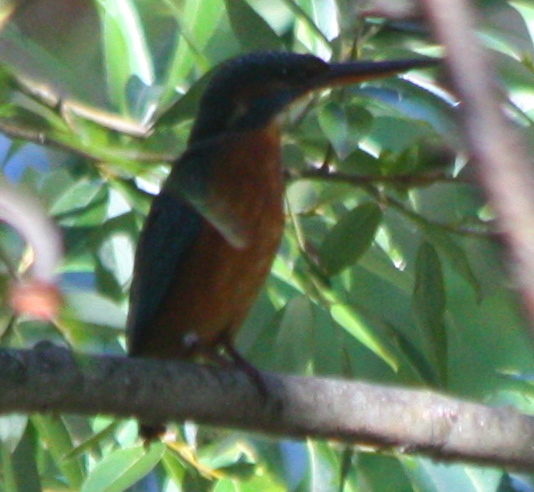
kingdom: Animalia
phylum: Chordata
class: Aves
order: Coraciiformes
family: Alcedinidae
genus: Alcedo
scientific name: Alcedo atthis
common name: Common kingfisher
